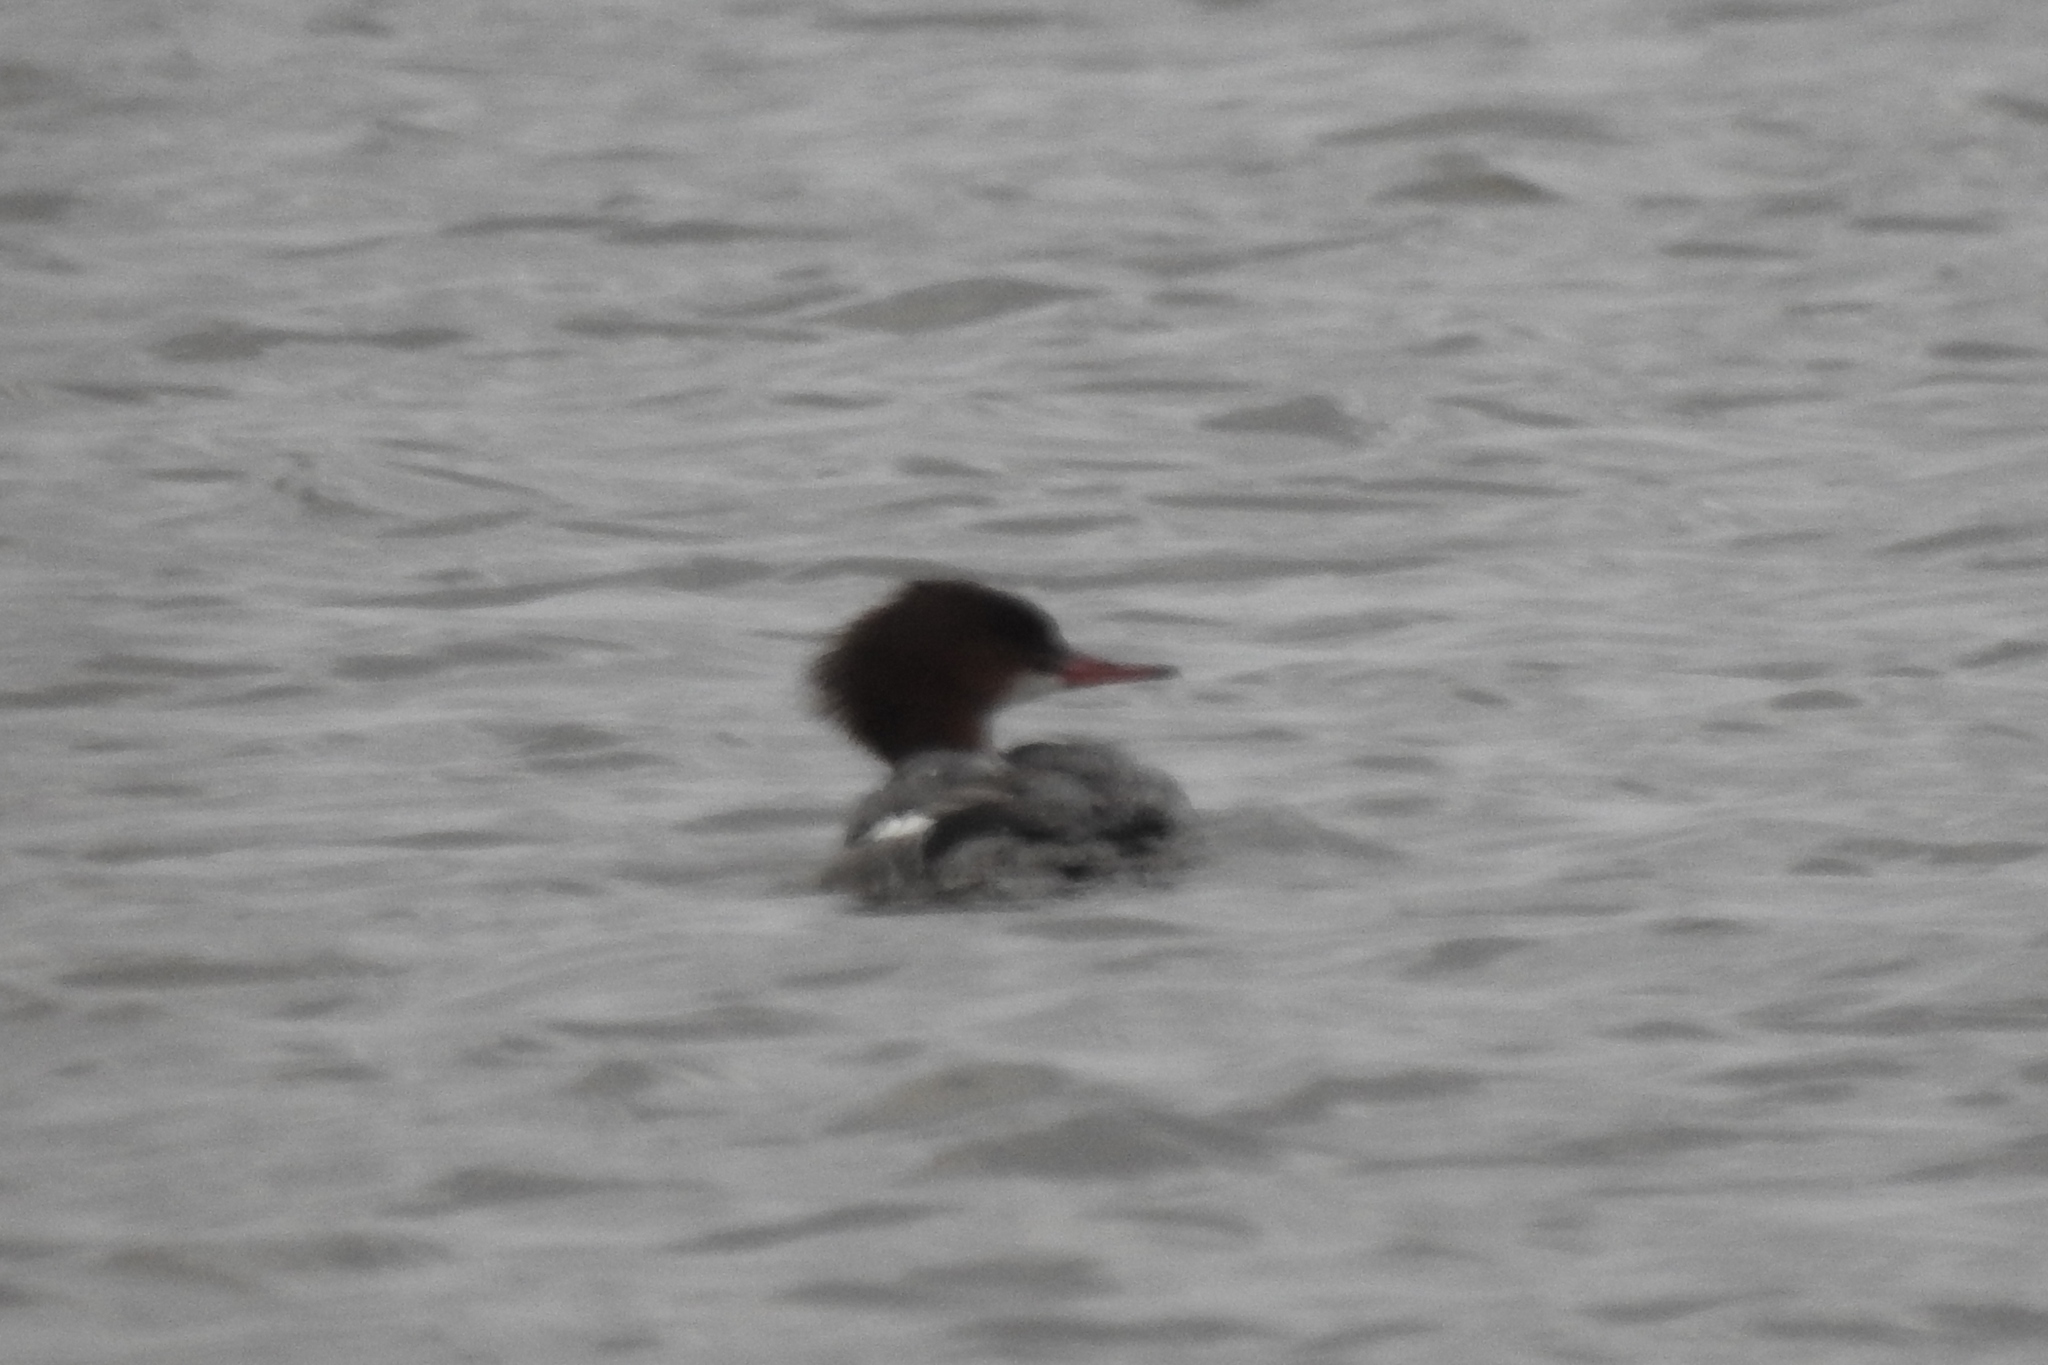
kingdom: Animalia
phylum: Chordata
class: Aves
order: Anseriformes
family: Anatidae
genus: Mergus
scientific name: Mergus merganser
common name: Common merganser
